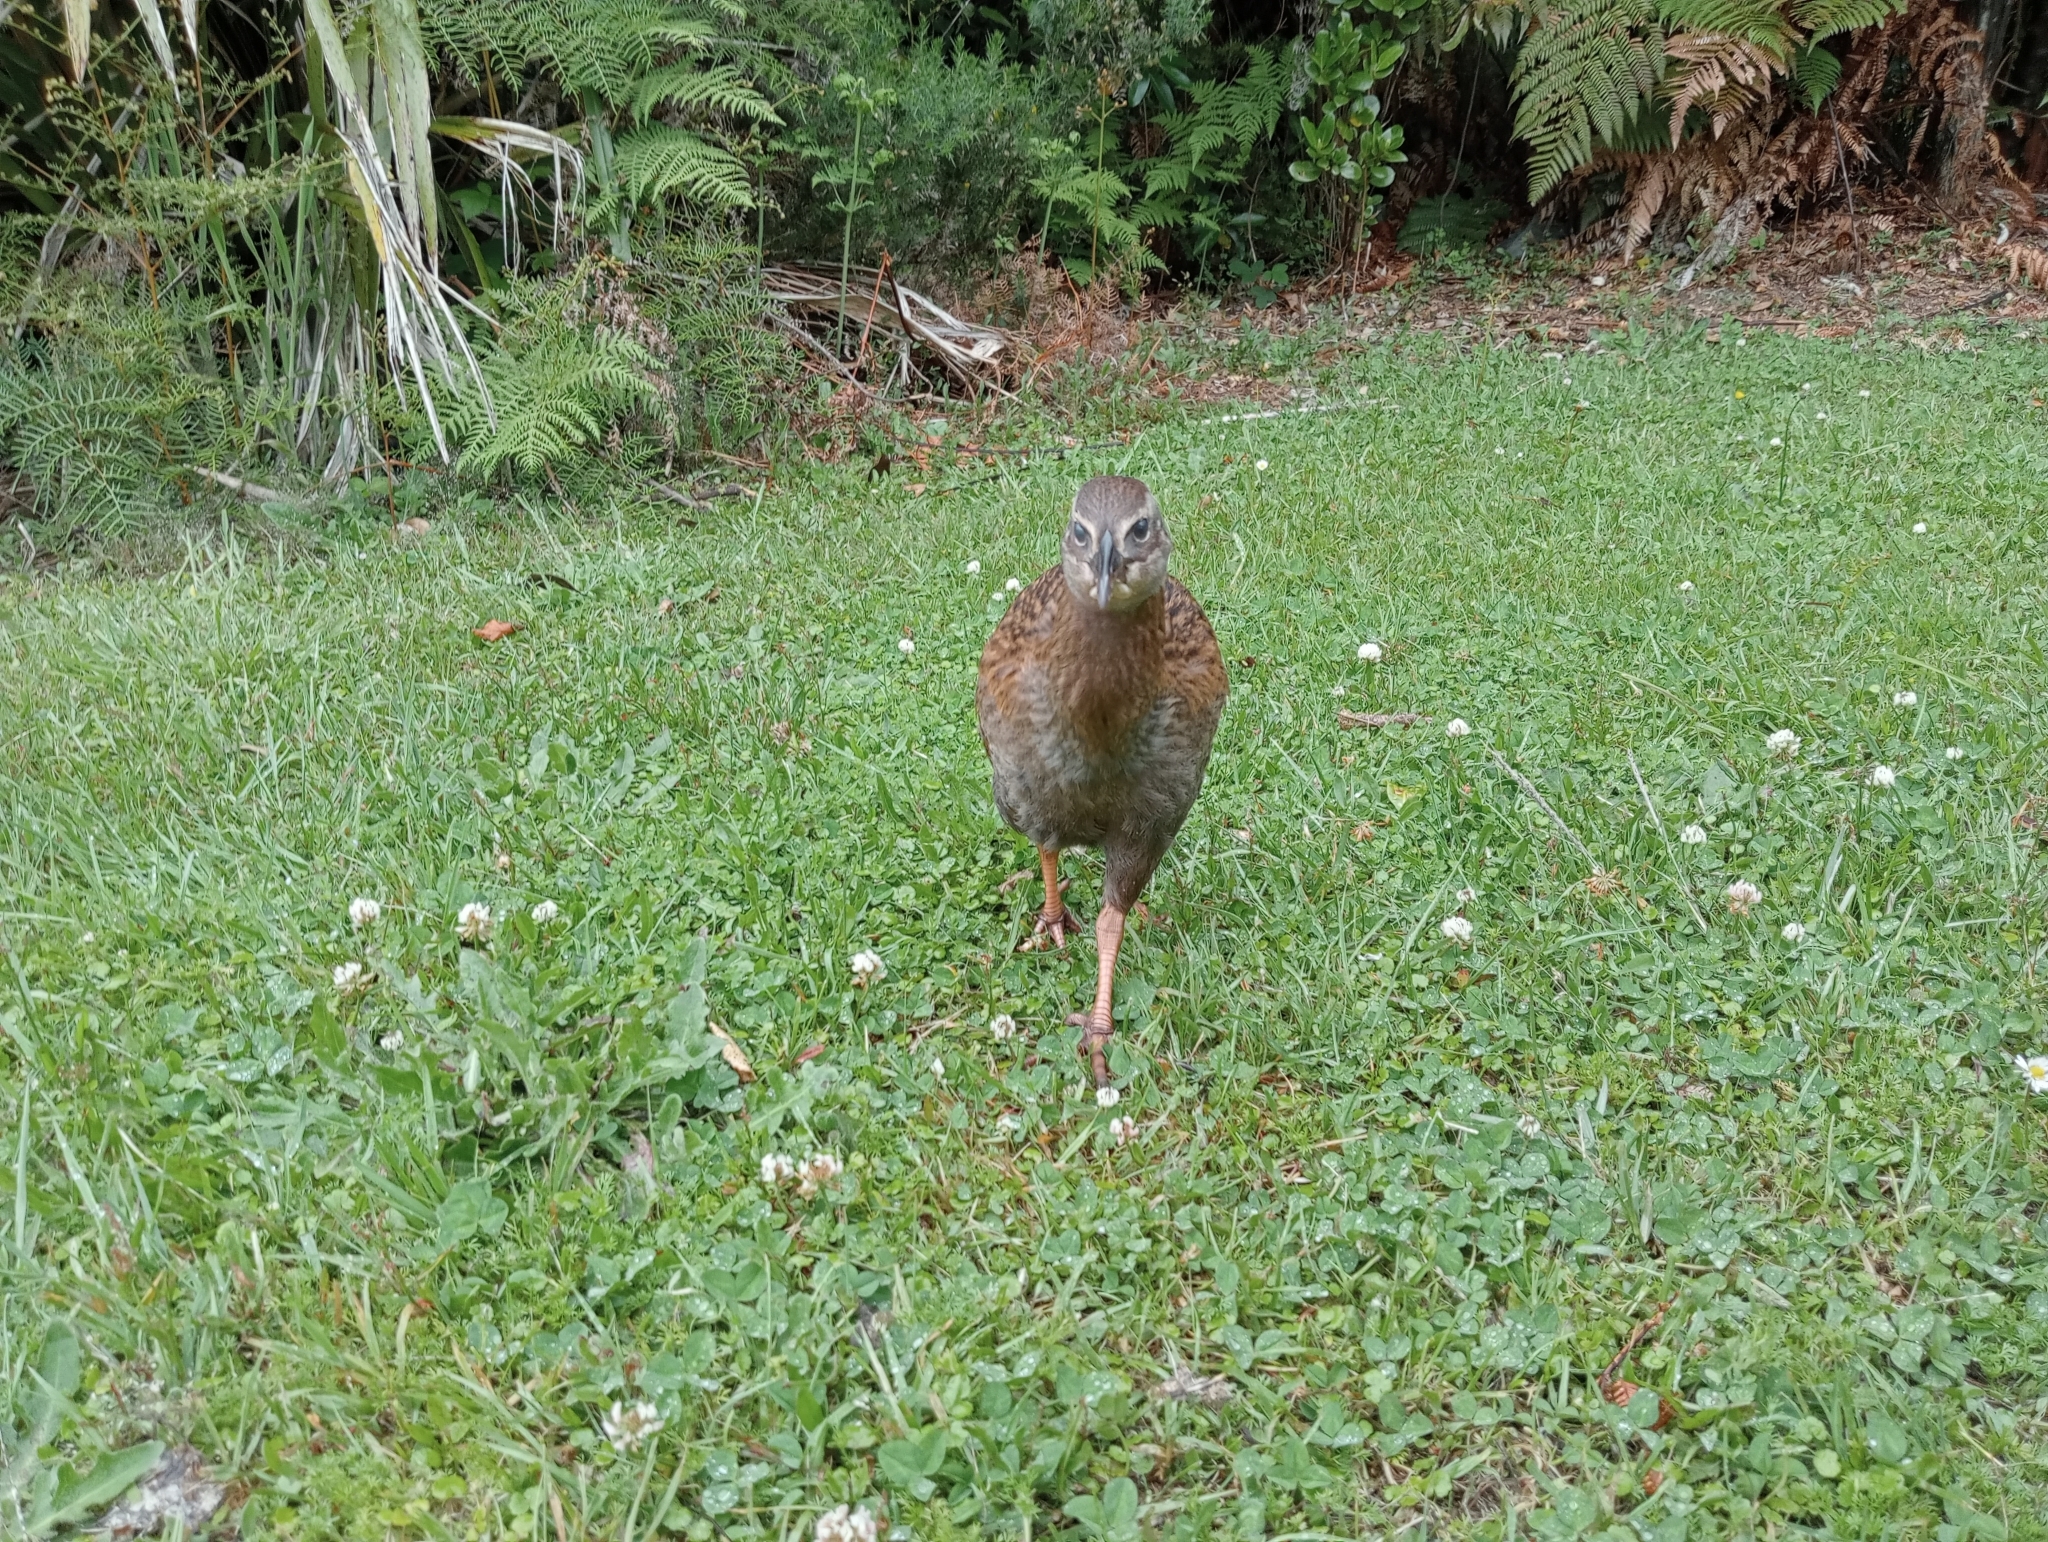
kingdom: Animalia
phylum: Chordata
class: Aves
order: Gruiformes
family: Rallidae
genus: Gallirallus
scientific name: Gallirallus australis
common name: Weka
